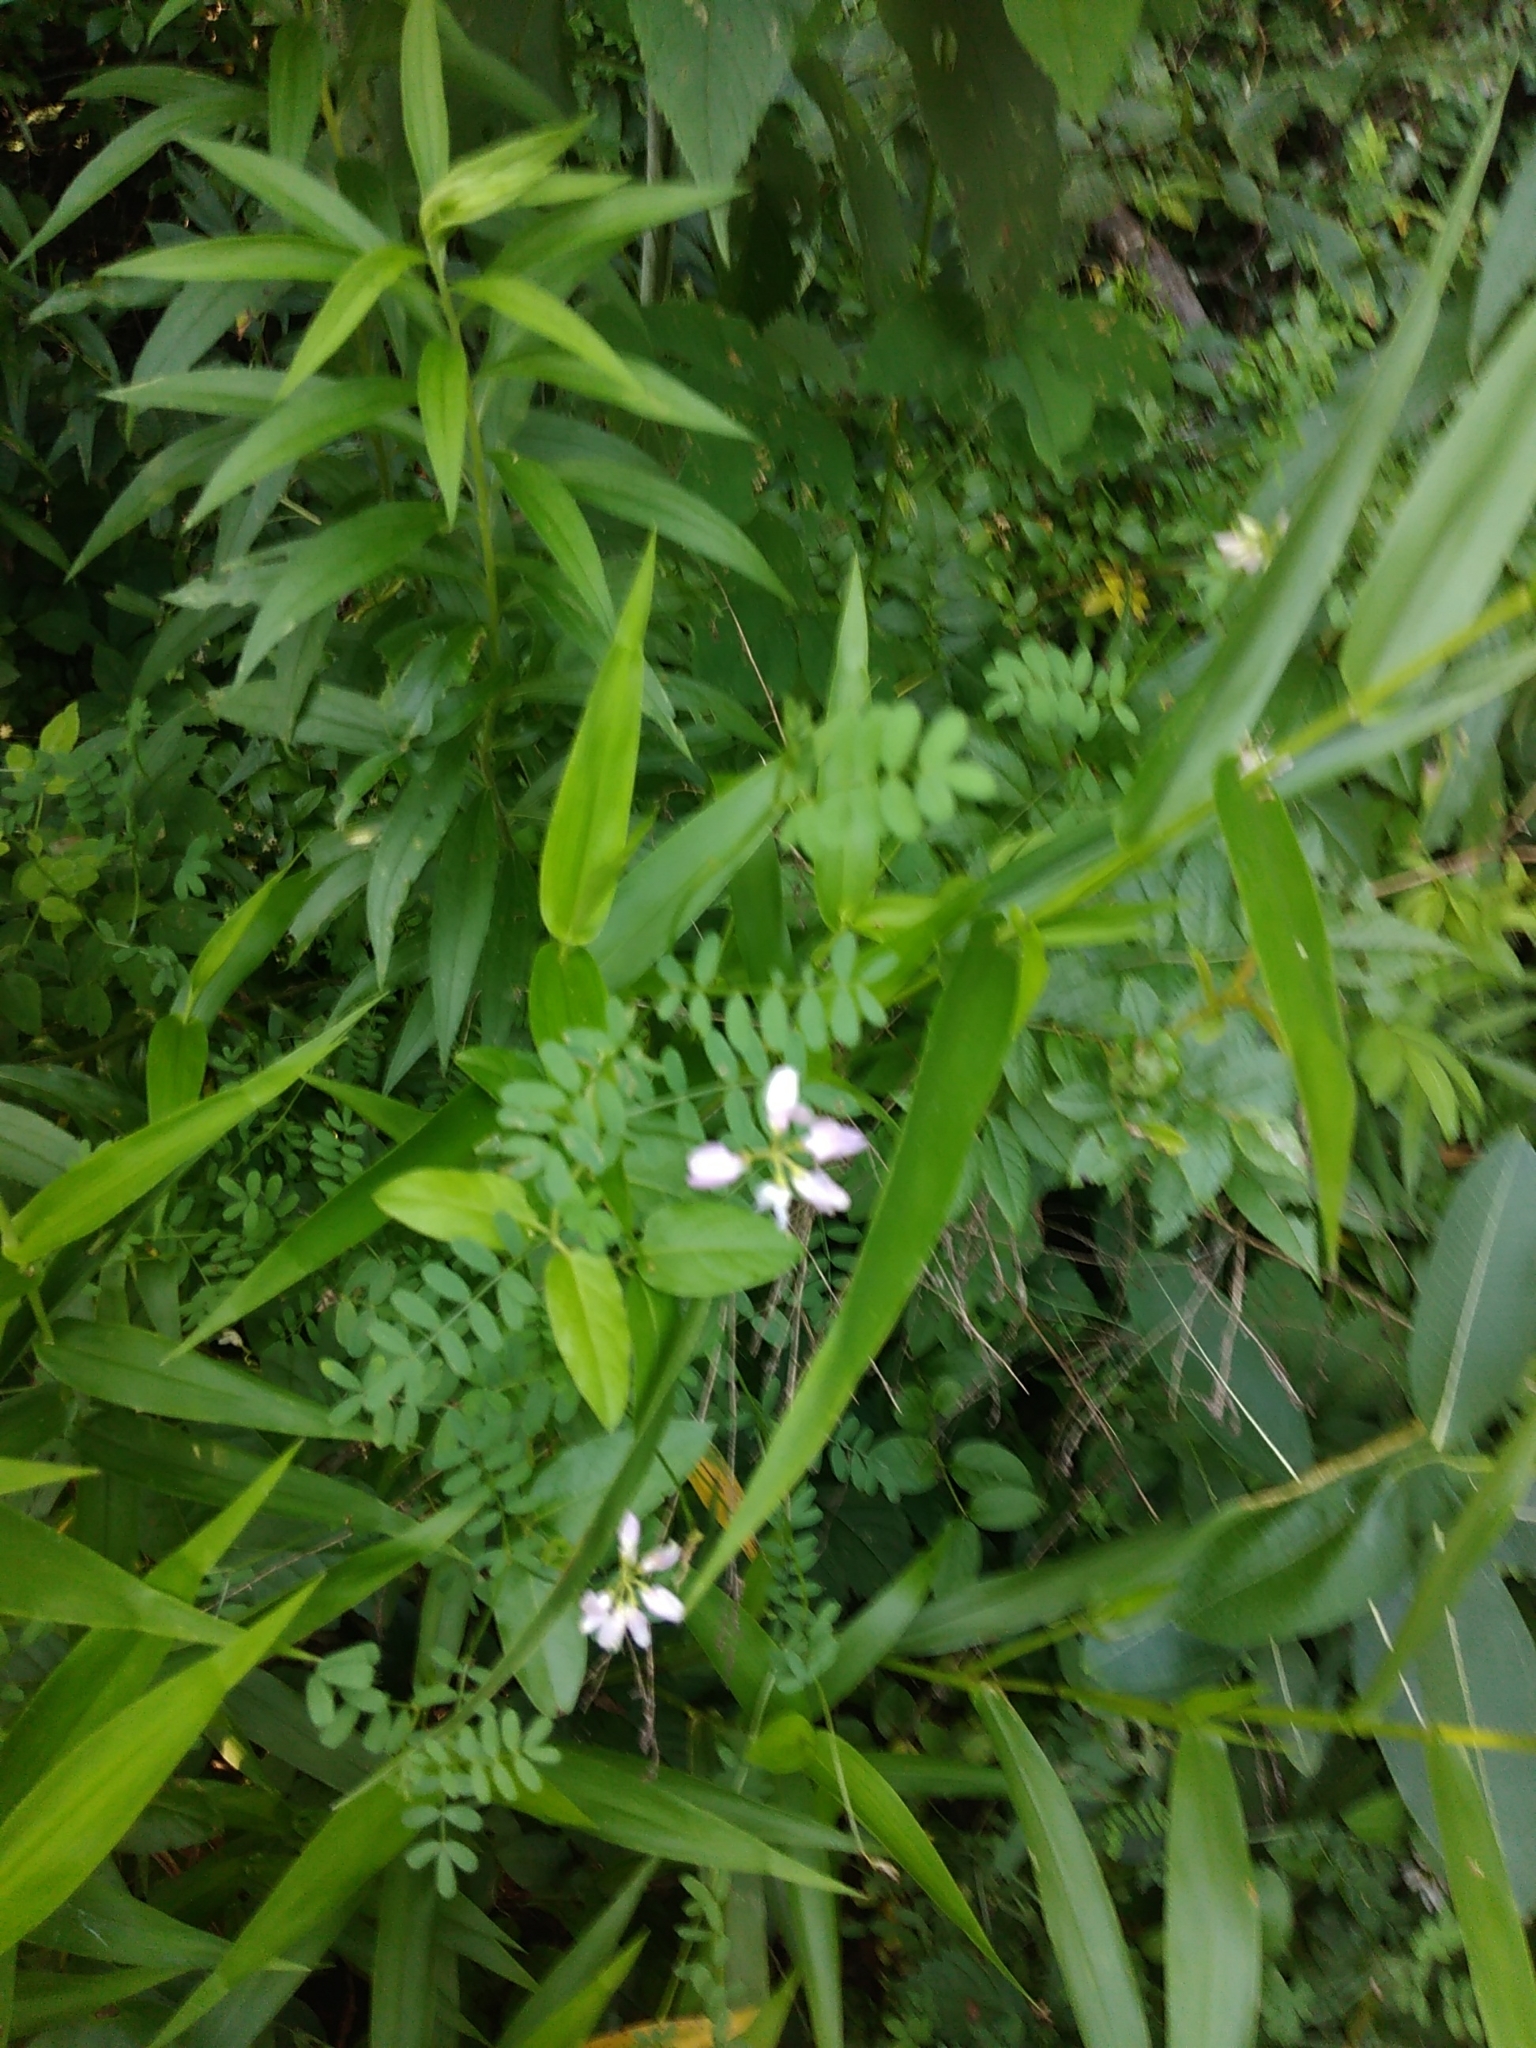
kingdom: Plantae
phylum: Tracheophyta
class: Magnoliopsida
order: Fabales
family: Fabaceae
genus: Coronilla
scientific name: Coronilla varia
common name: Crownvetch
